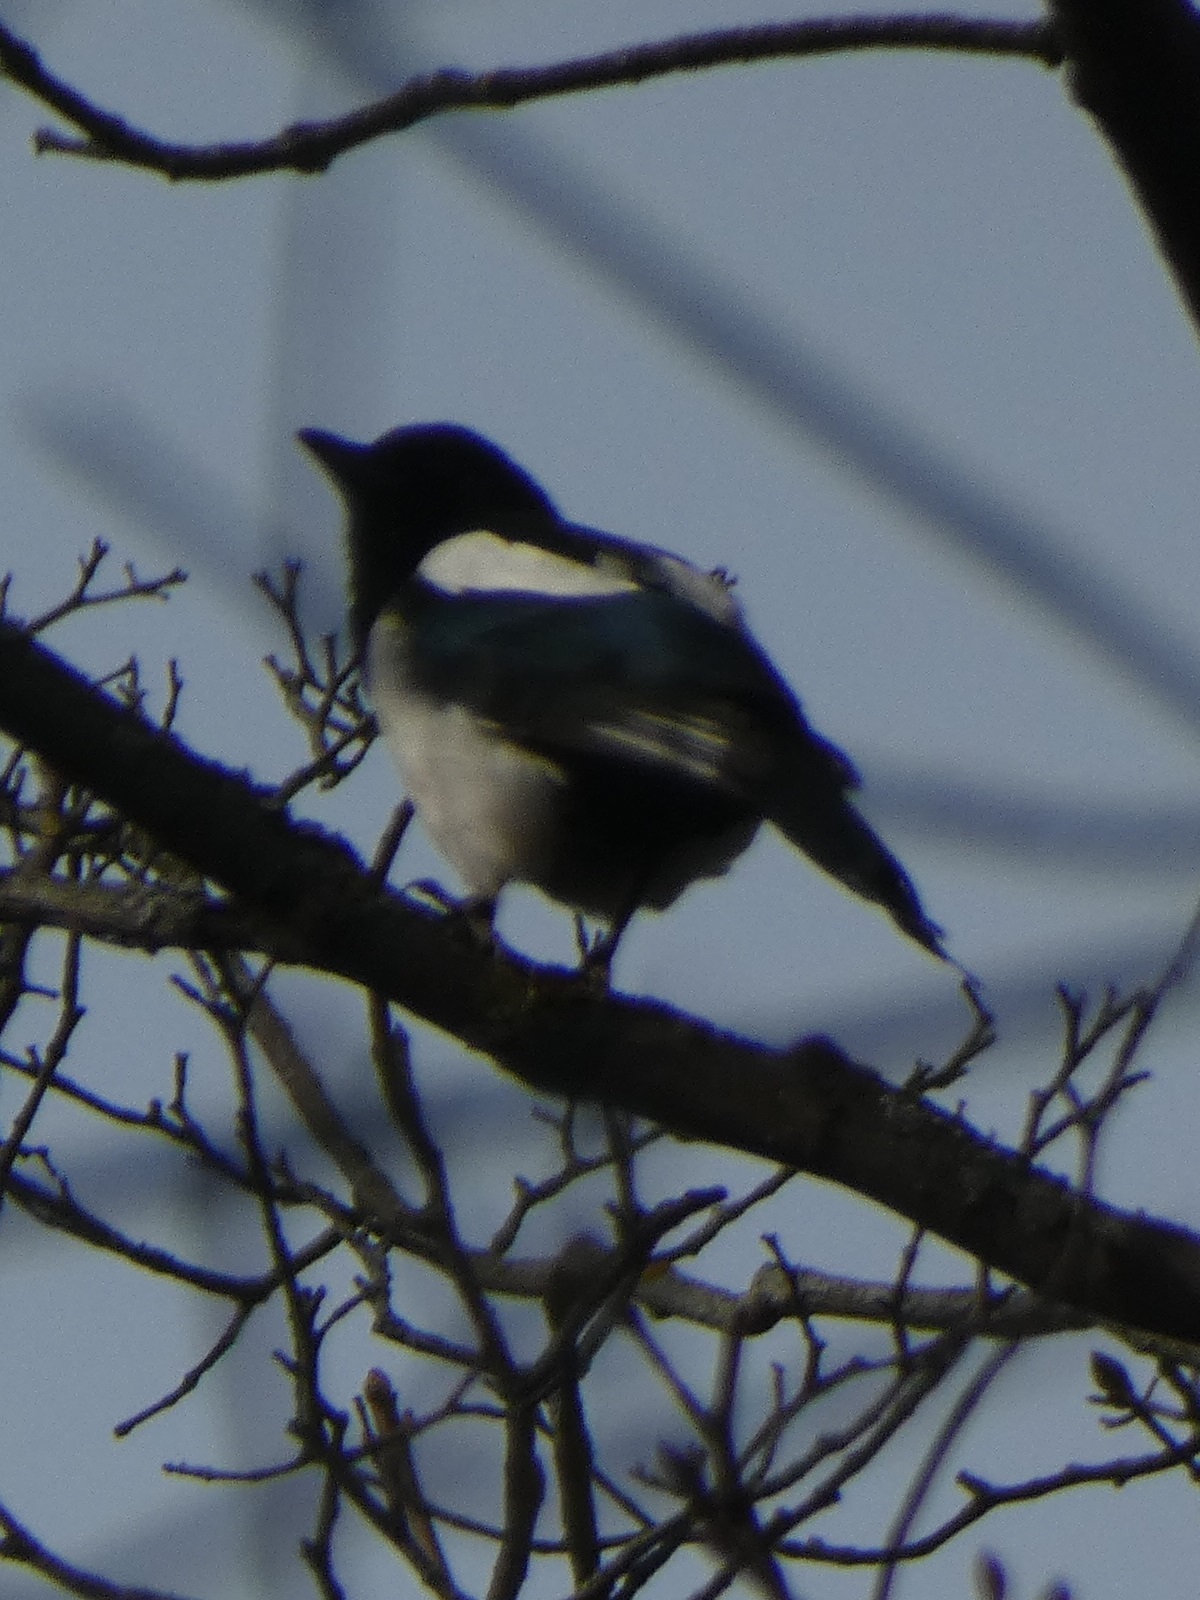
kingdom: Animalia
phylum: Chordata
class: Aves
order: Passeriformes
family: Corvidae
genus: Pica
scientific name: Pica pica
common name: Eurasian magpie
